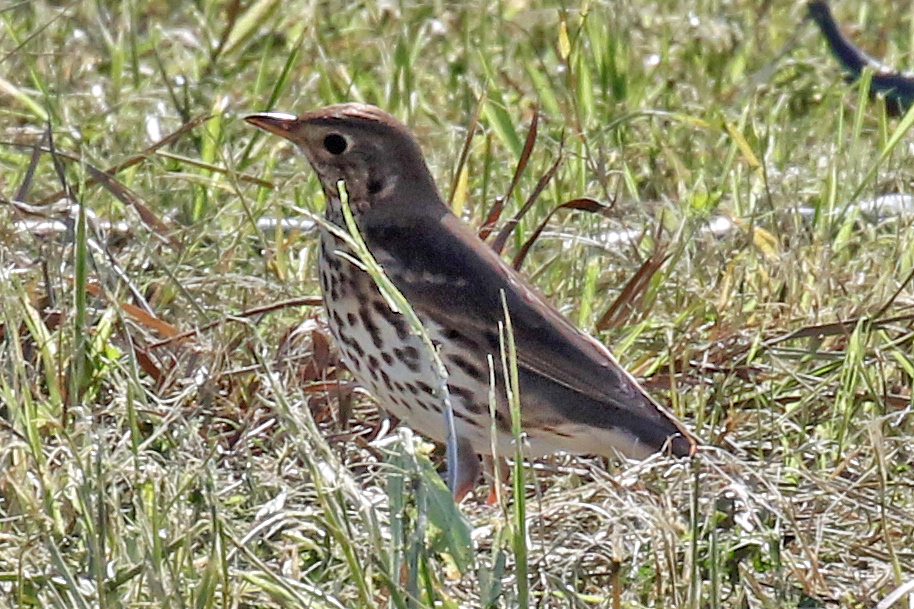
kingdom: Animalia
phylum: Chordata
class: Aves
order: Passeriformes
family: Turdidae
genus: Turdus
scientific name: Turdus philomelos
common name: Song thrush
